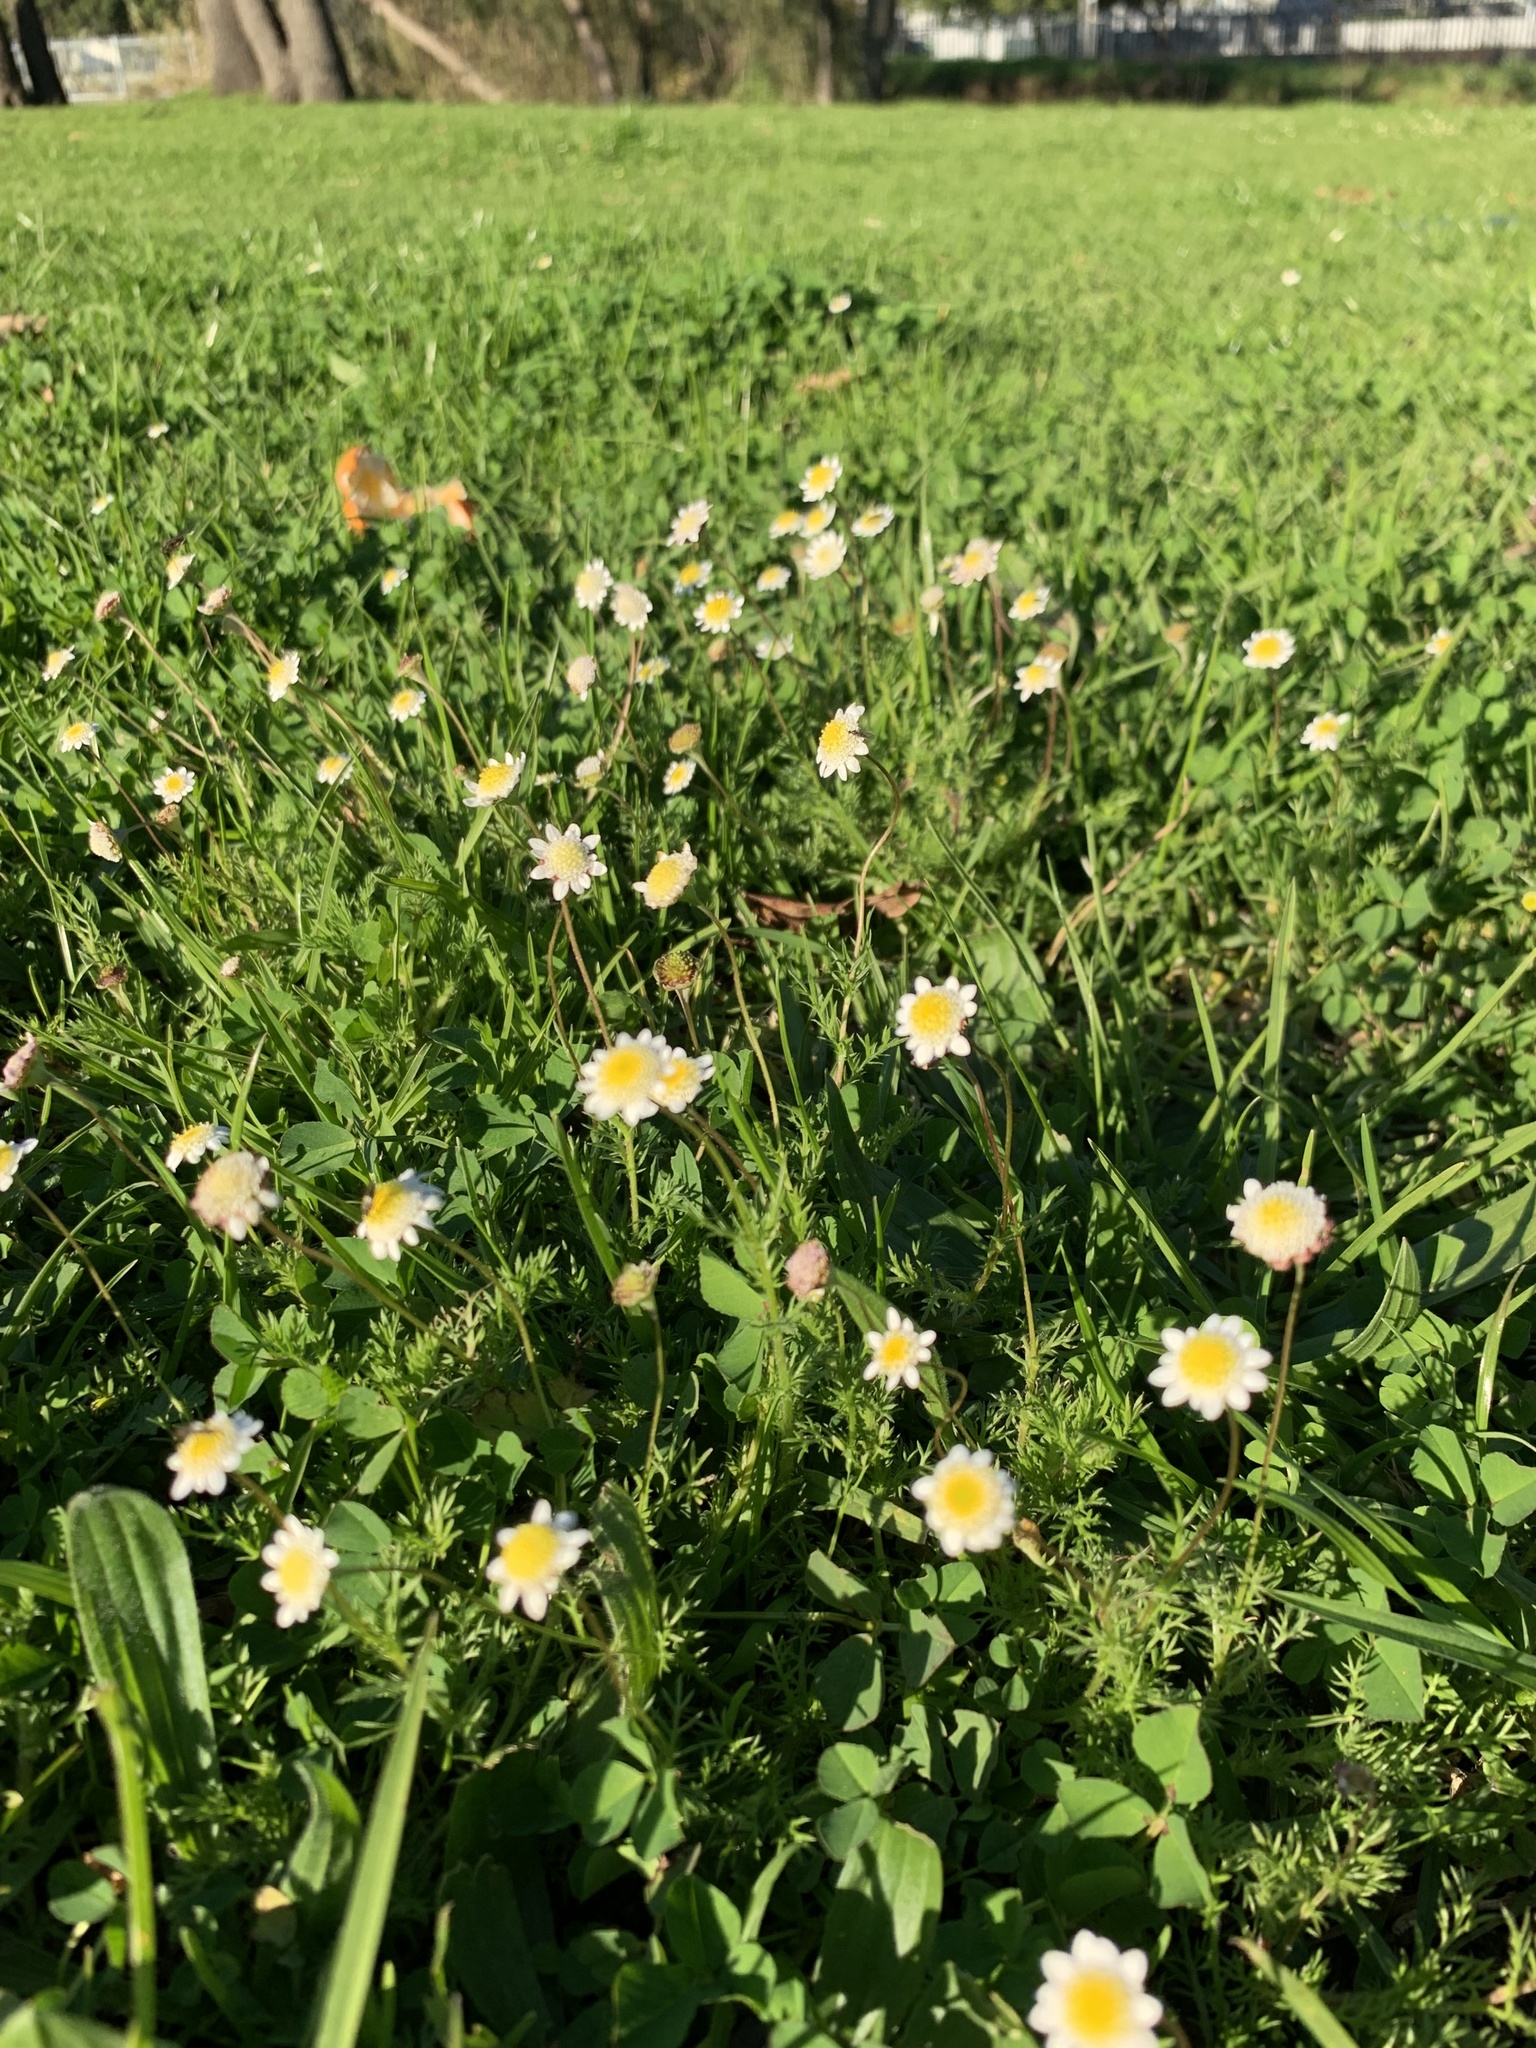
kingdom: Plantae
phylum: Tracheophyta
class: Magnoliopsida
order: Asterales
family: Asteraceae
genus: Cotula
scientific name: Cotula turbinata
